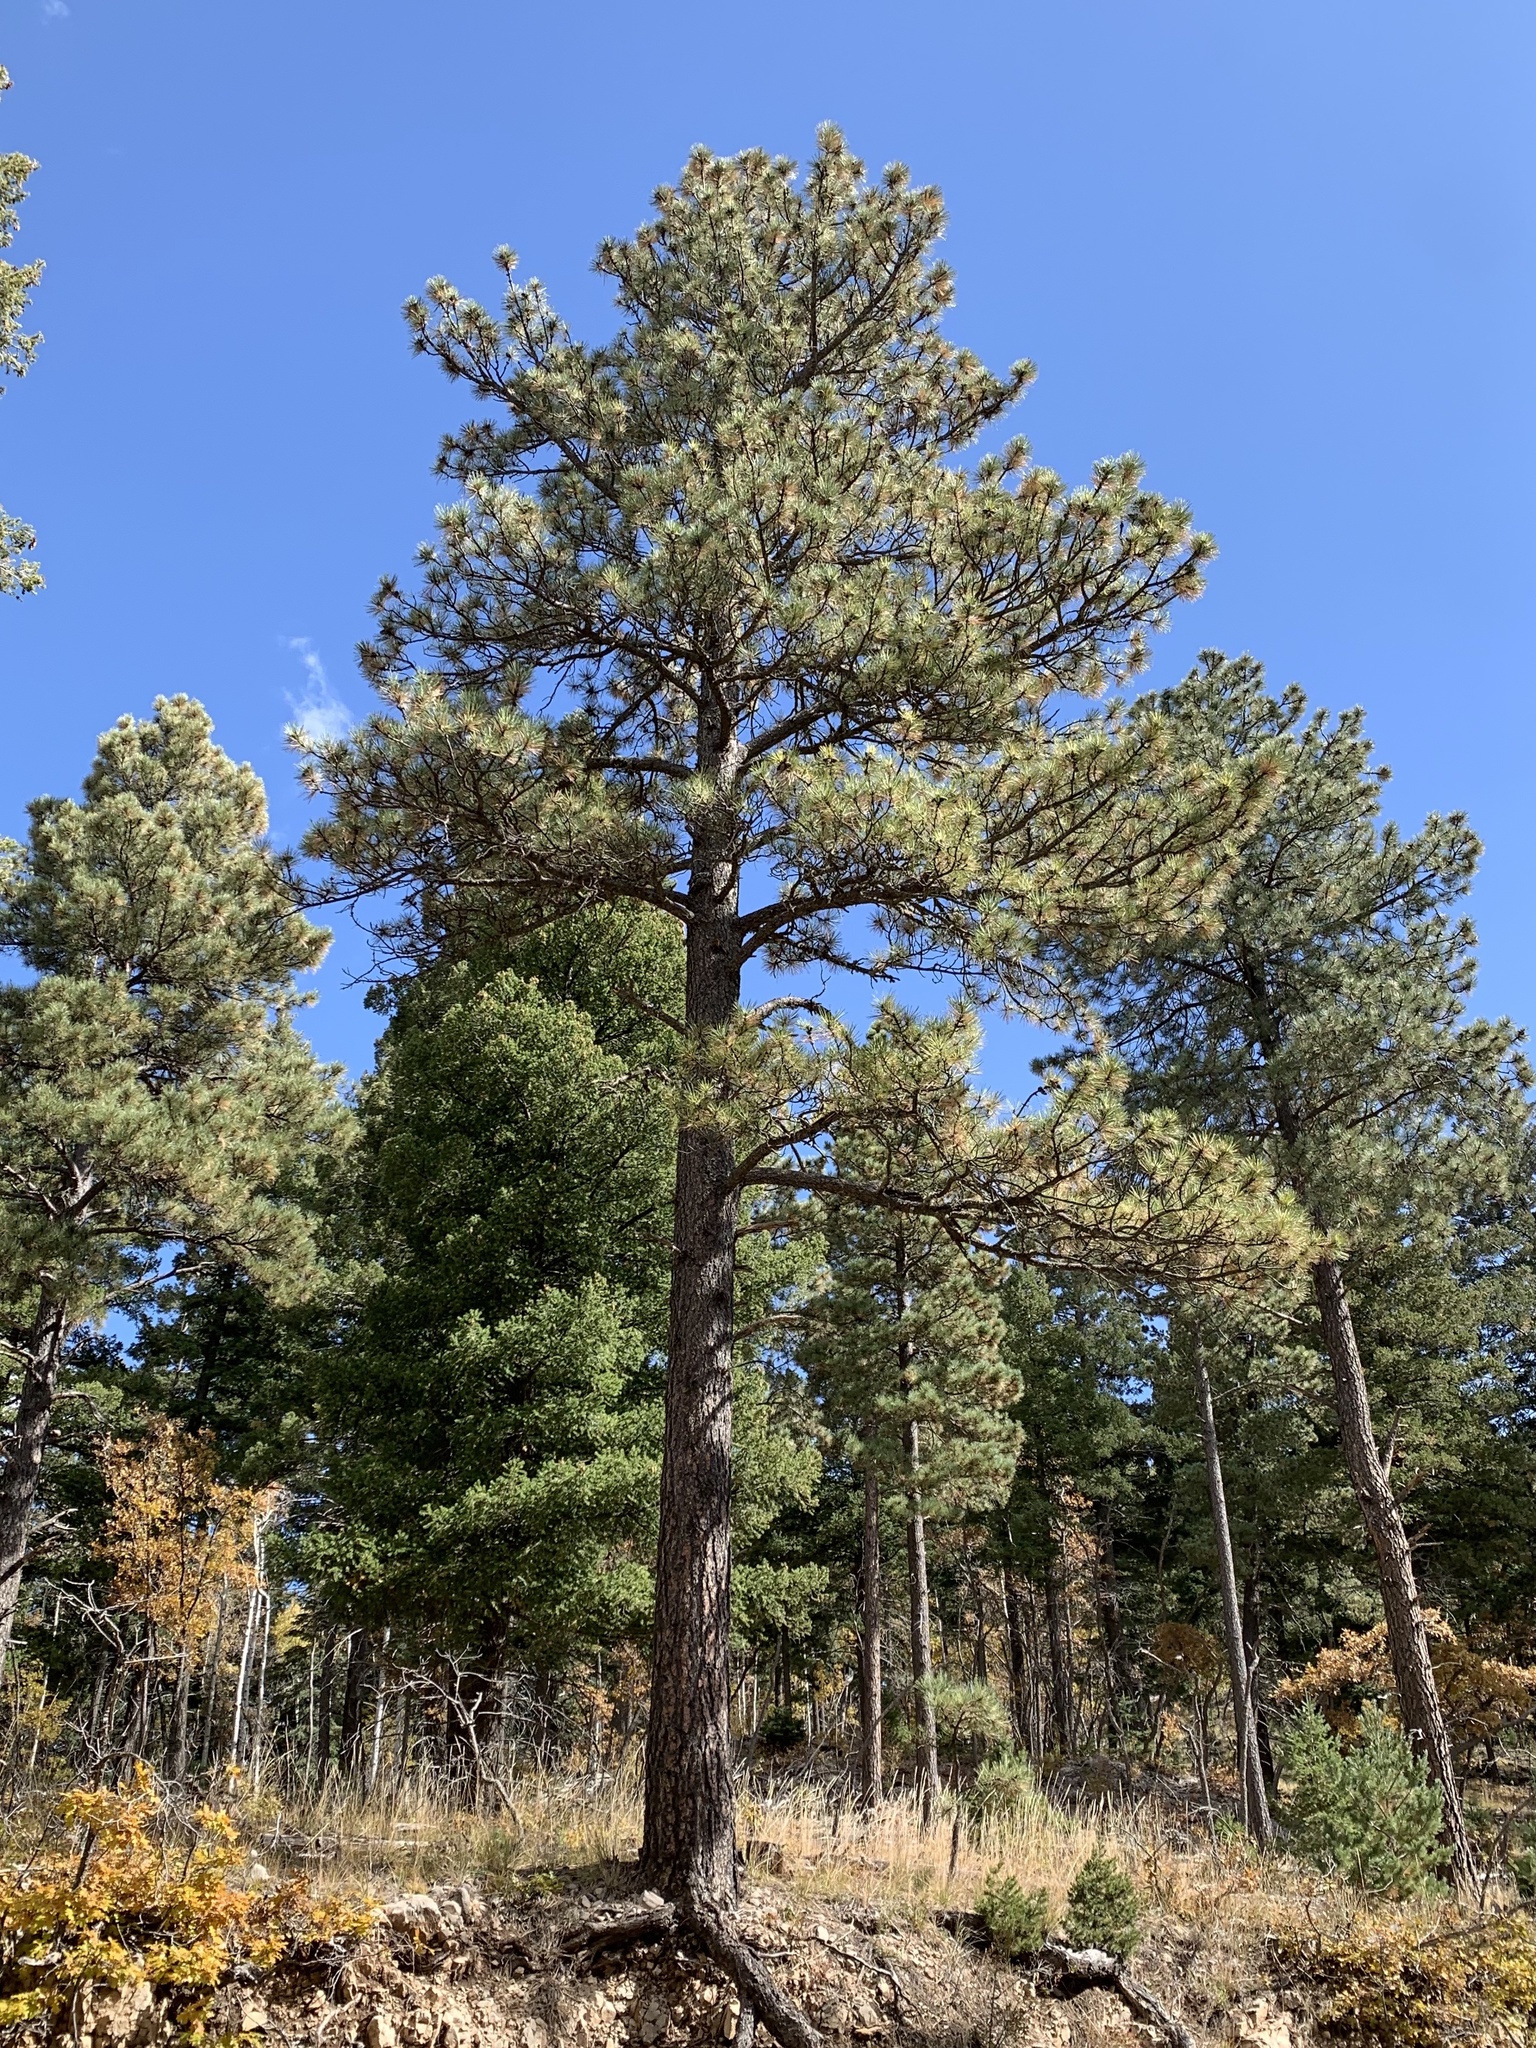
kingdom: Plantae
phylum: Tracheophyta
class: Pinopsida
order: Pinales
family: Pinaceae
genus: Pinus
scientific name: Pinus ponderosa
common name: Western yellow-pine
